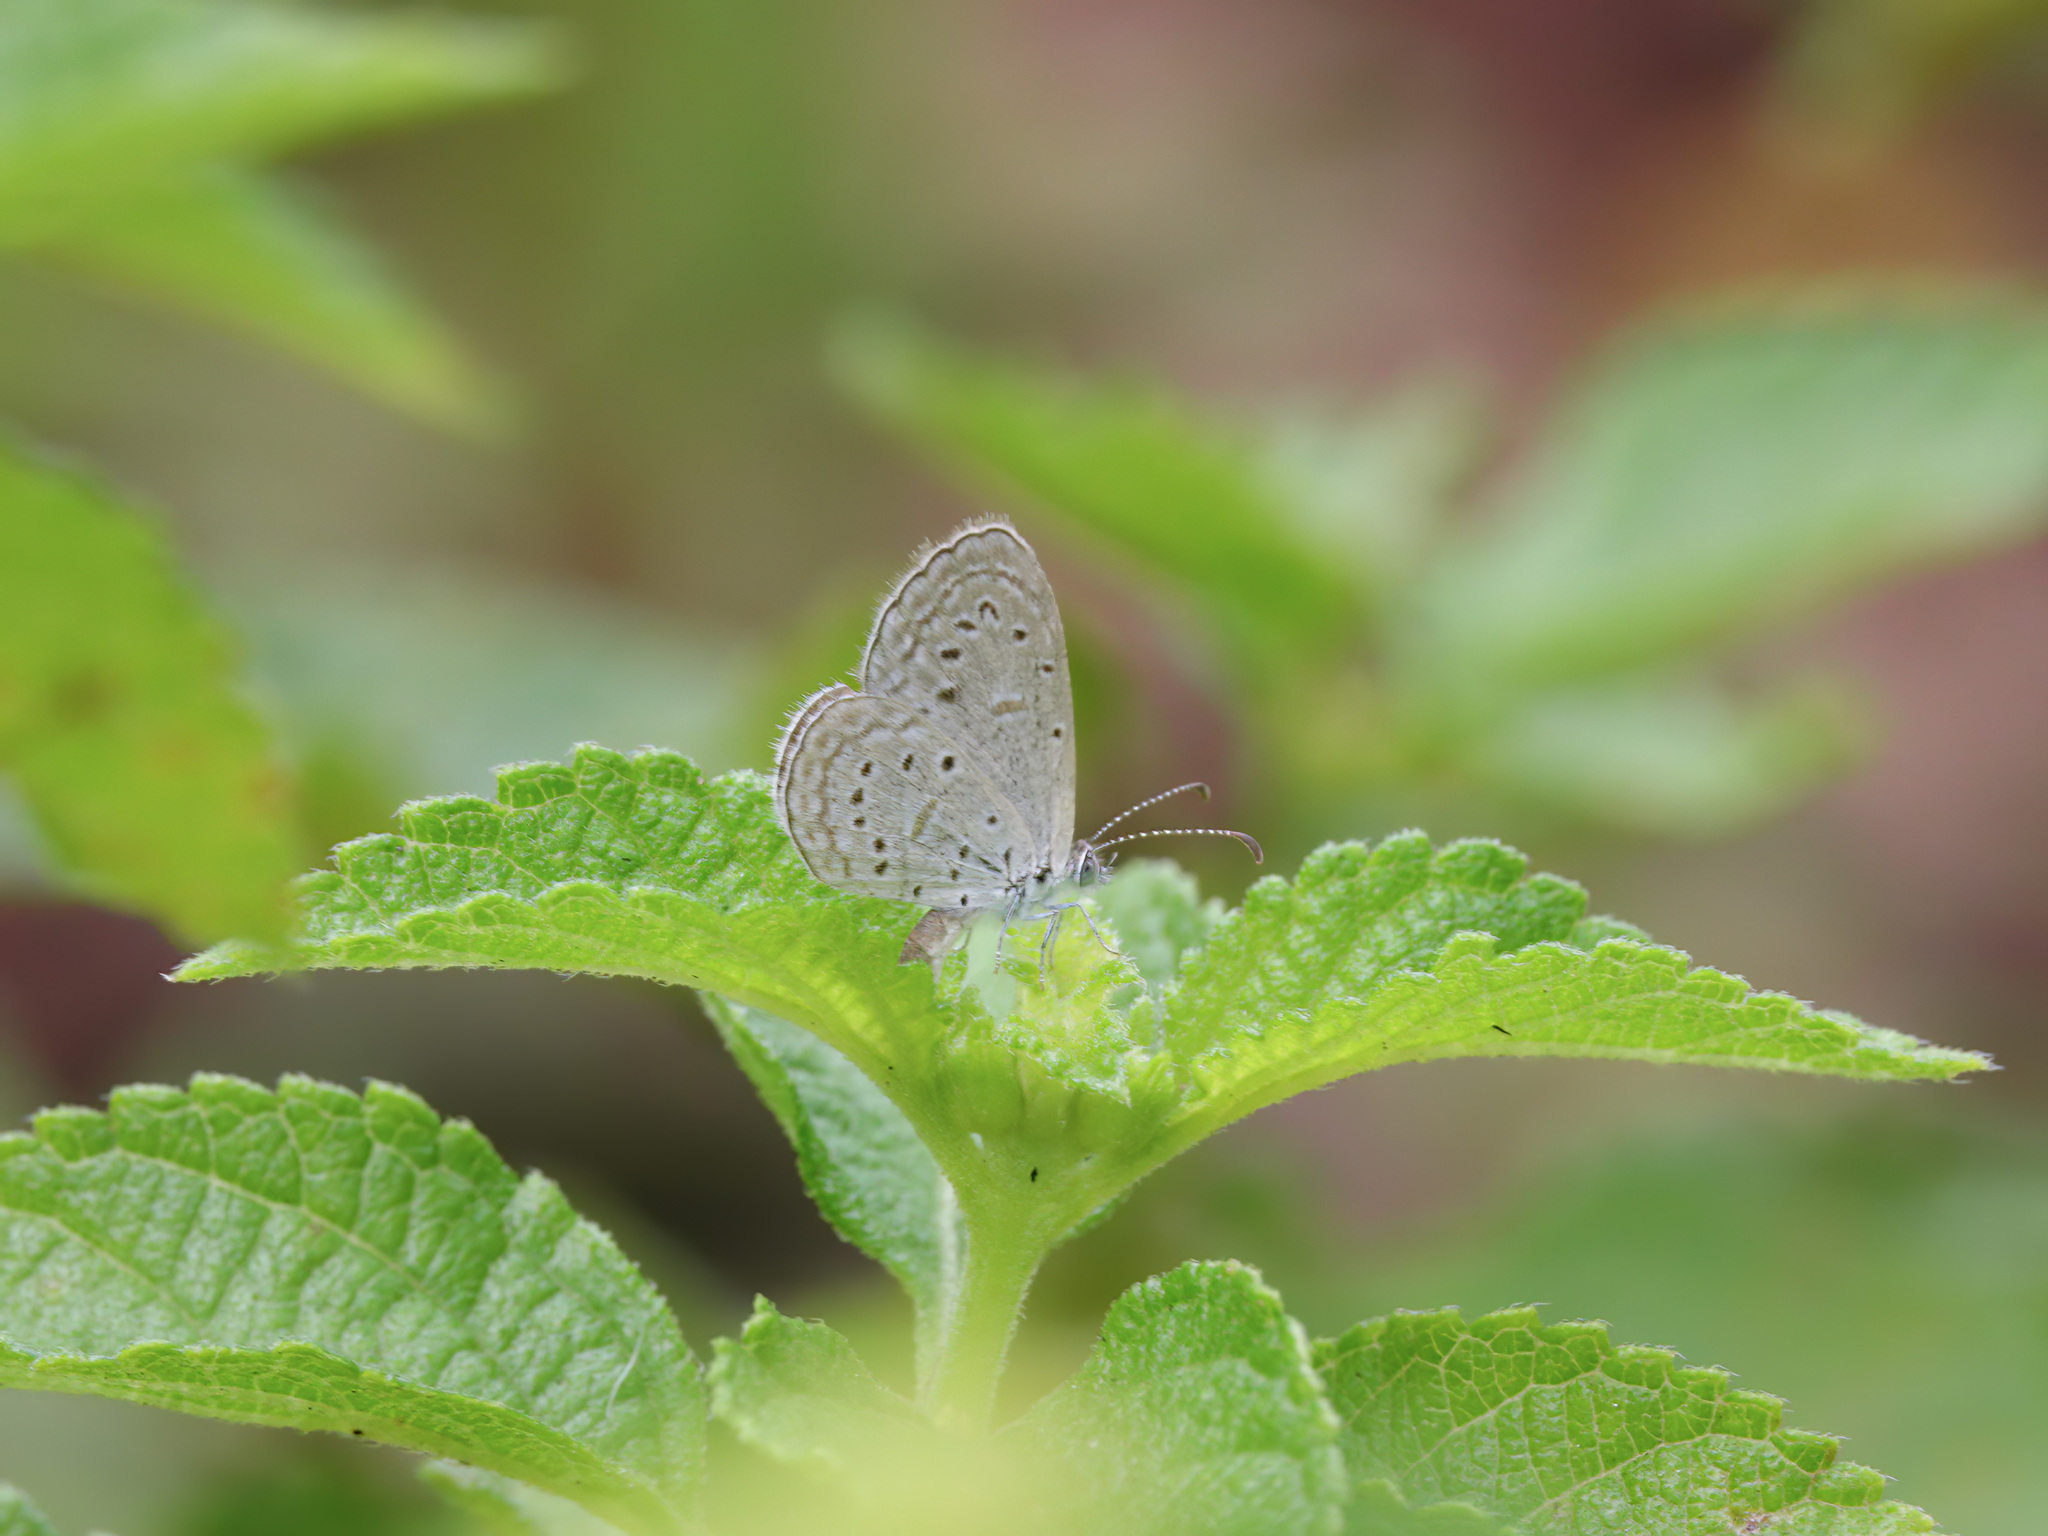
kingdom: Animalia
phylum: Arthropoda
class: Insecta
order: Lepidoptera
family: Lycaenidae
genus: Zizula
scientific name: Zizula hylax
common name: Gaika blue
